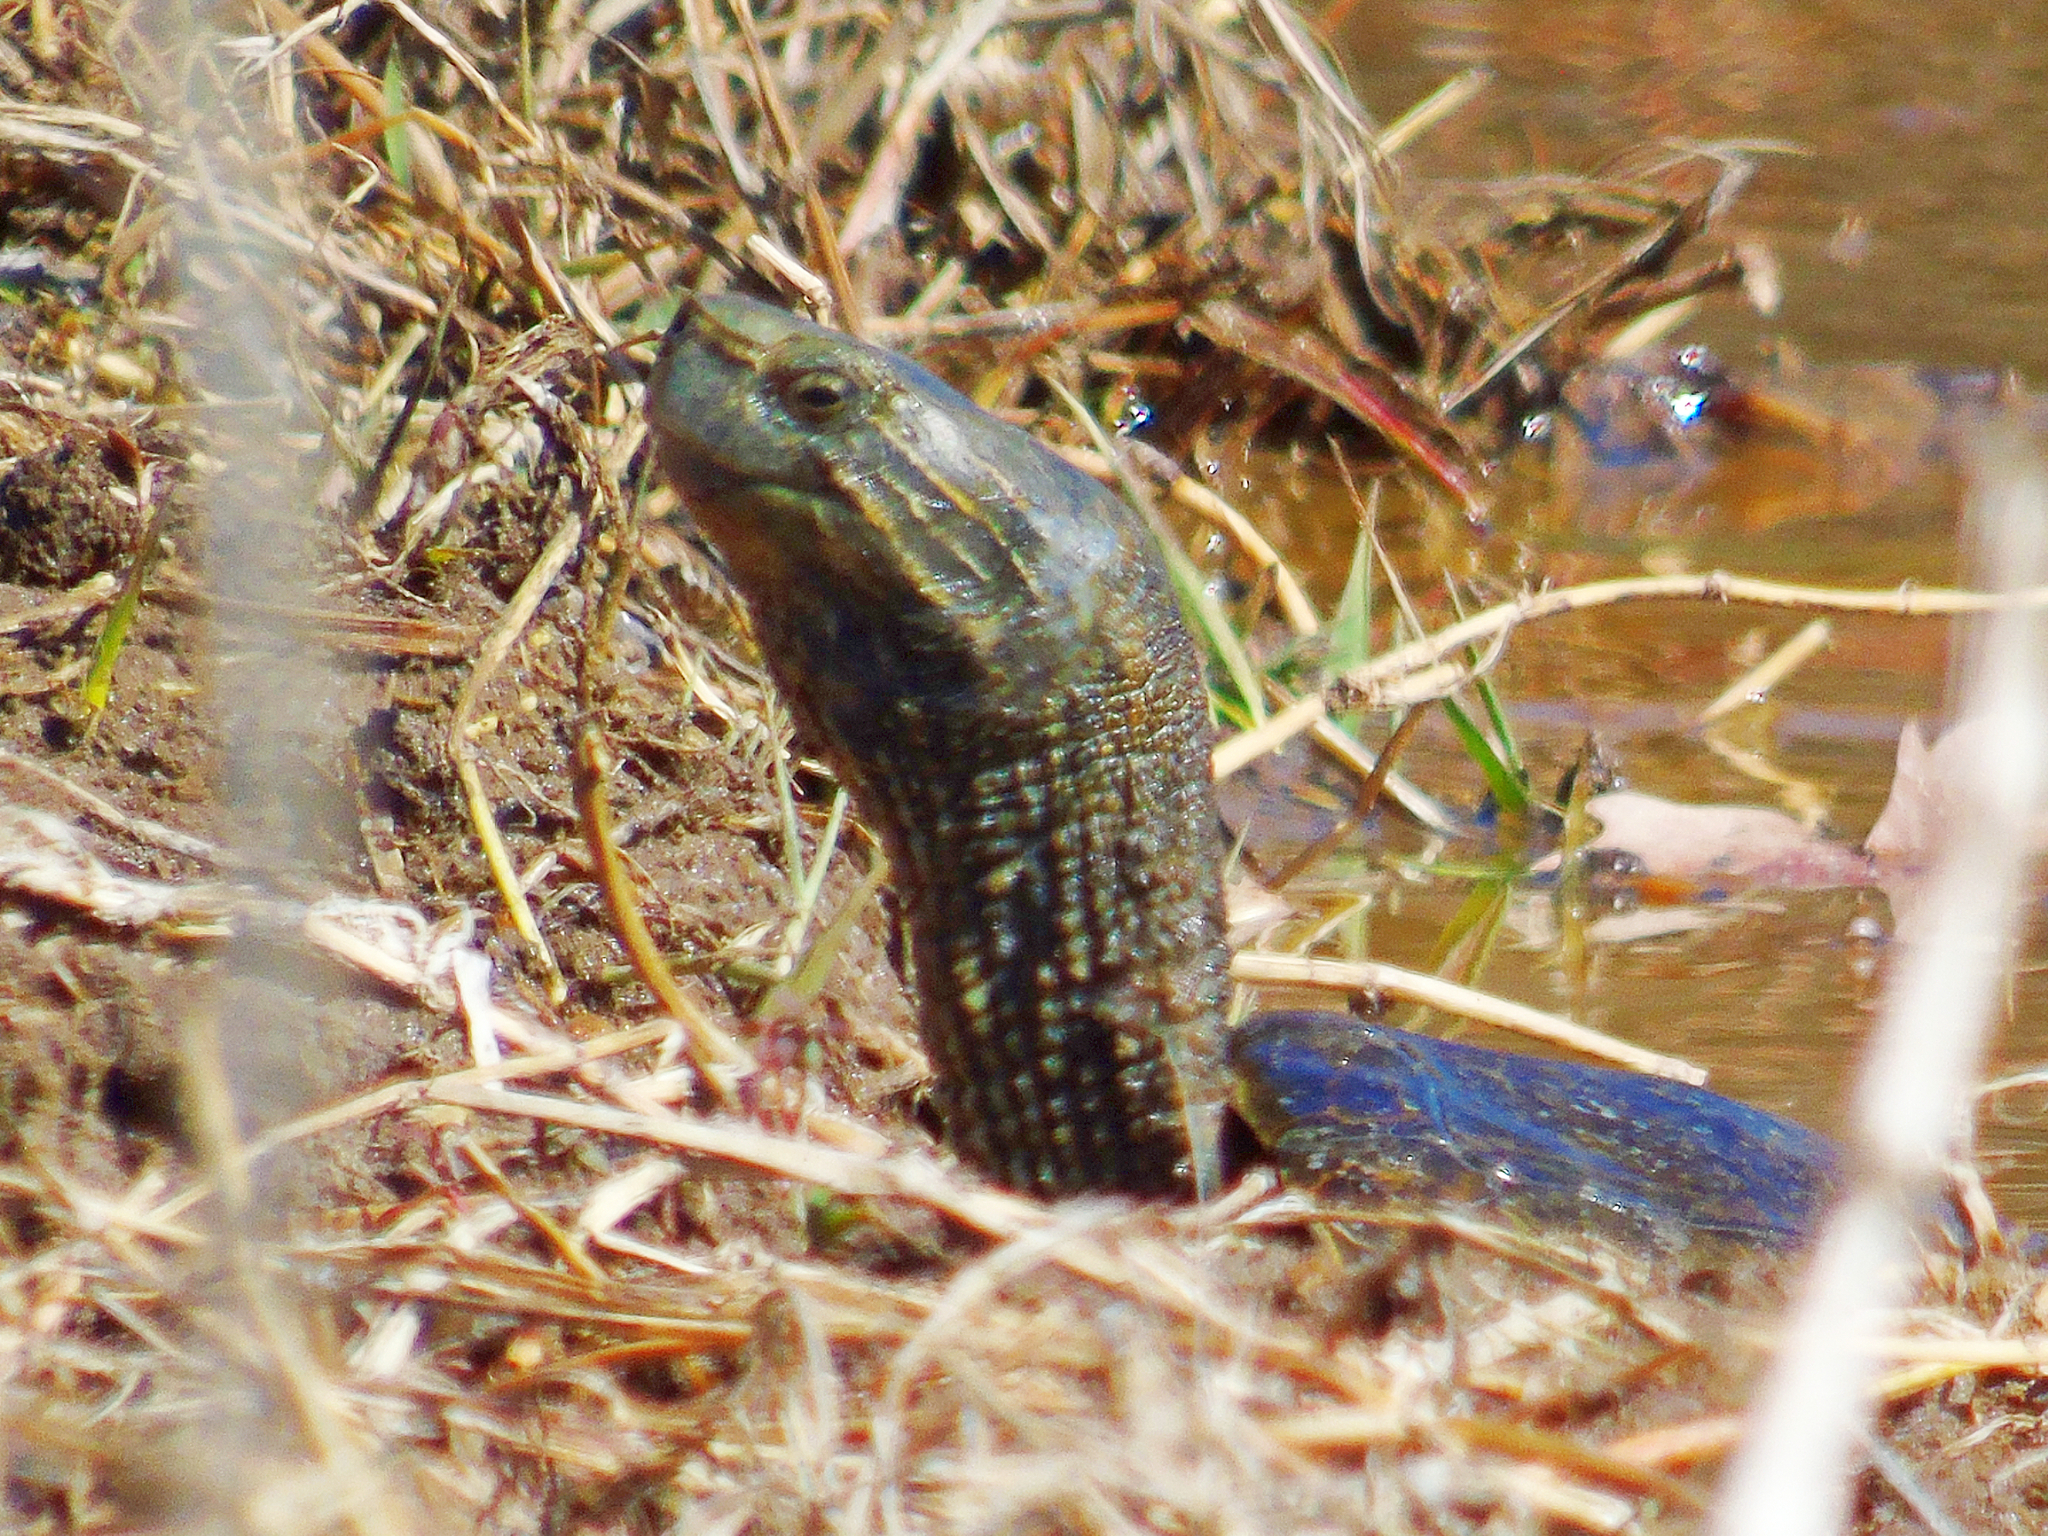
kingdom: Animalia
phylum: Chordata
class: Testudines
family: Geoemydidae
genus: Mauremys
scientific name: Mauremys caspica
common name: Caspian turtle
